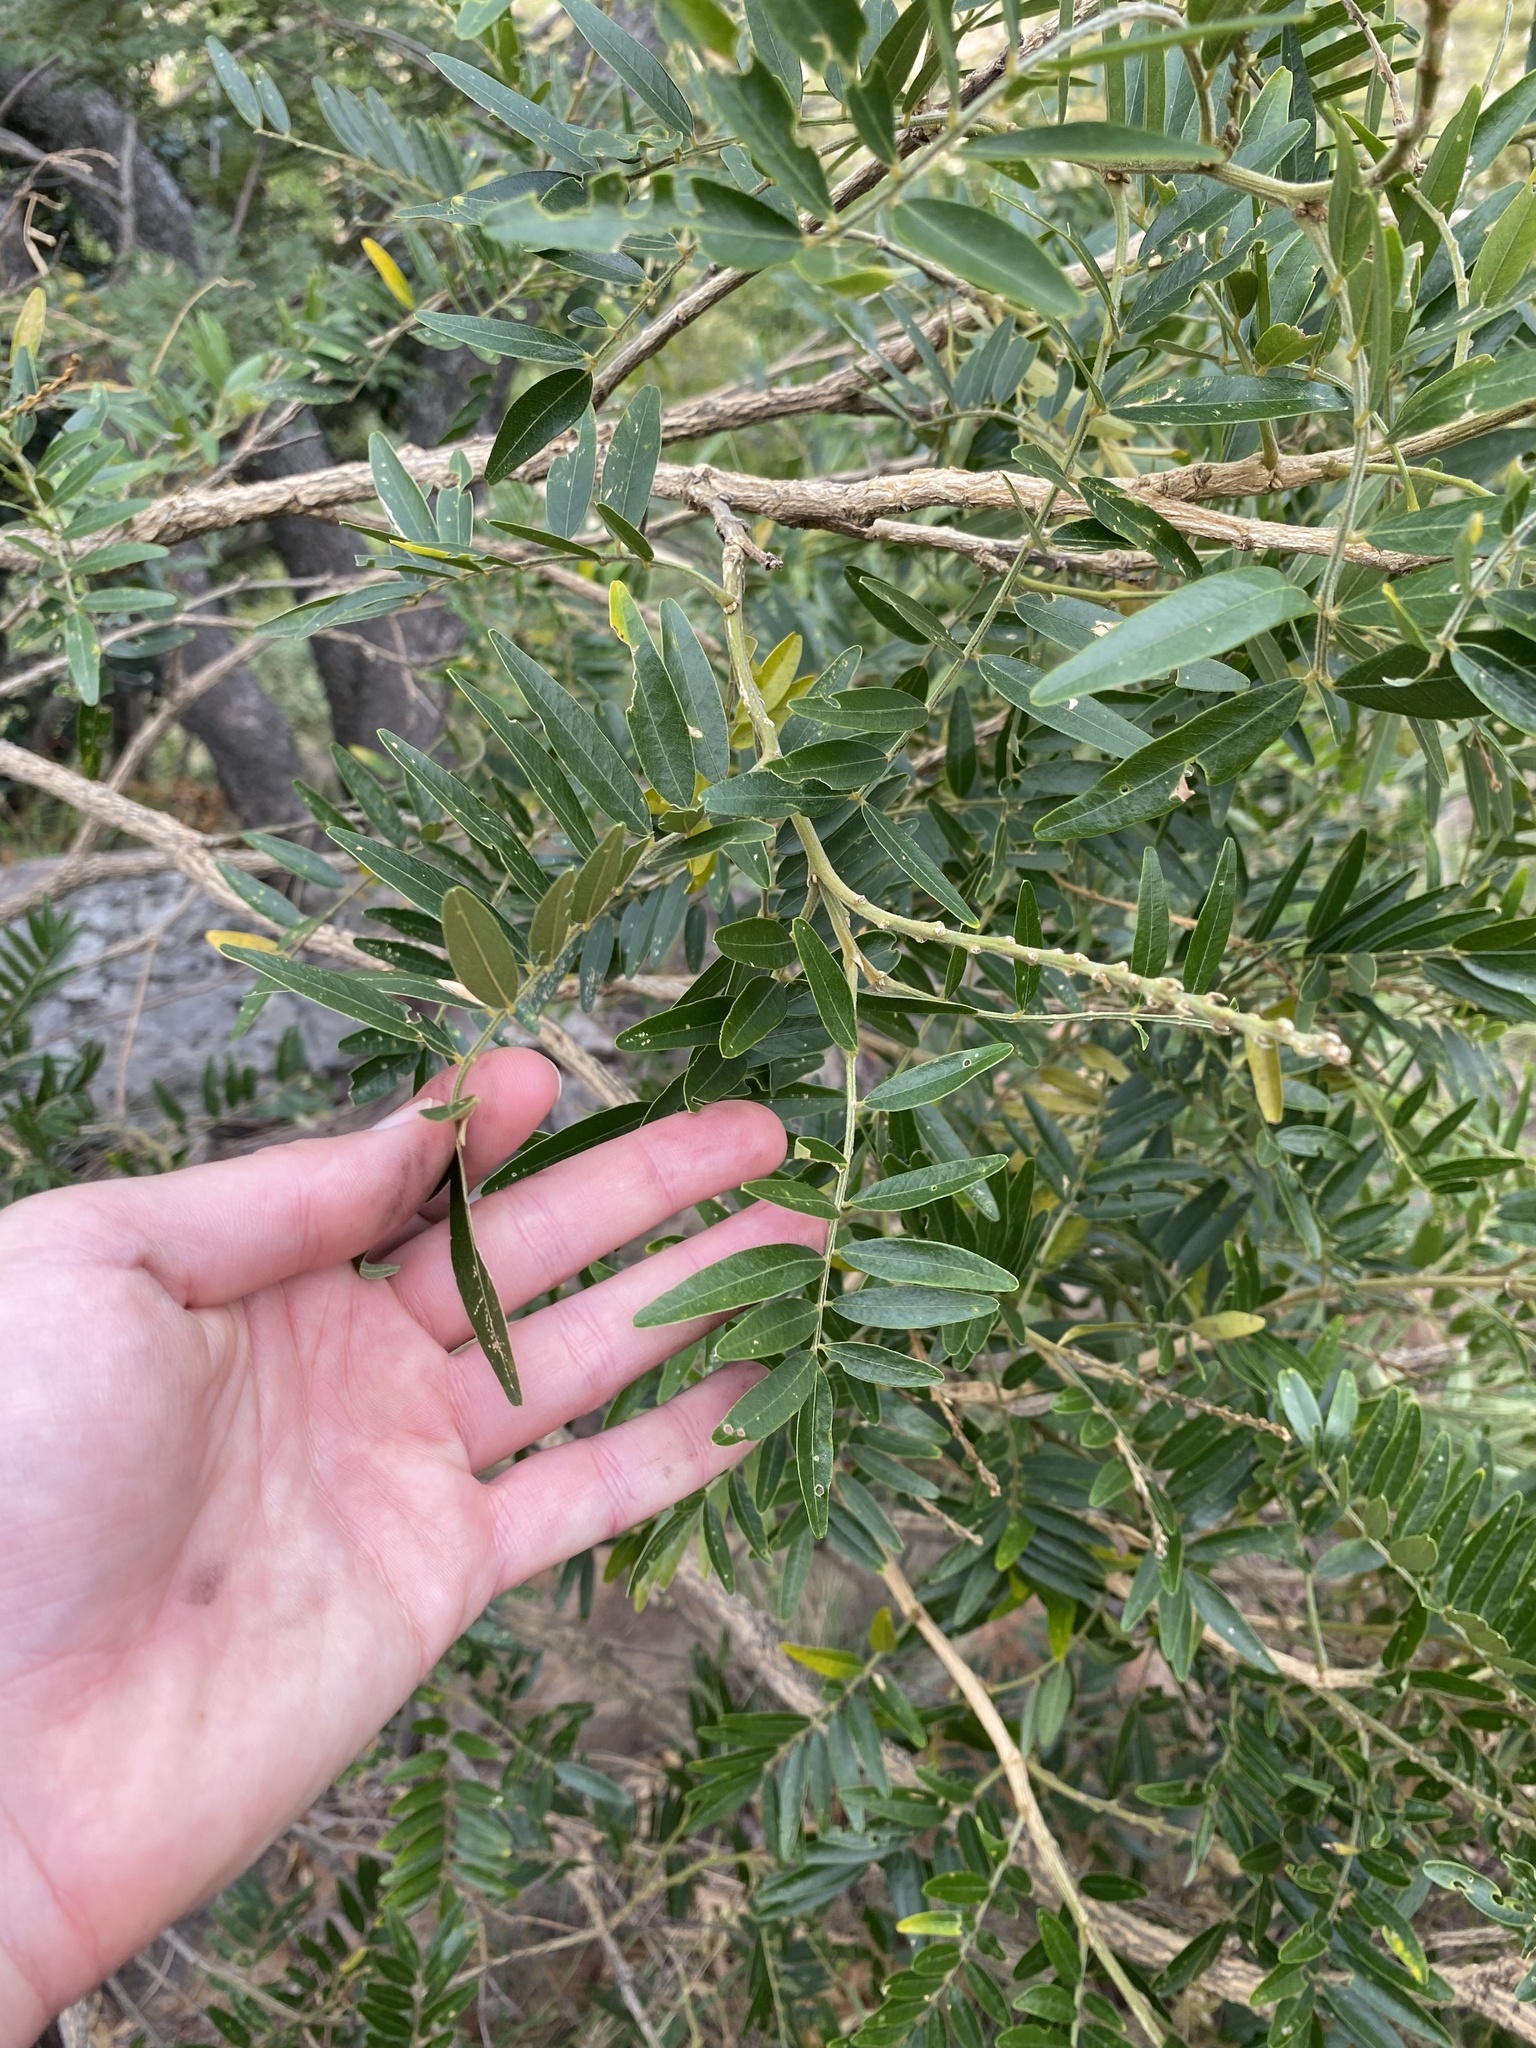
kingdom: Plantae
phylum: Tracheophyta
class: Magnoliopsida
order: Fabales
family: Fabaceae
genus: Mundulea
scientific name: Mundulea sericea
